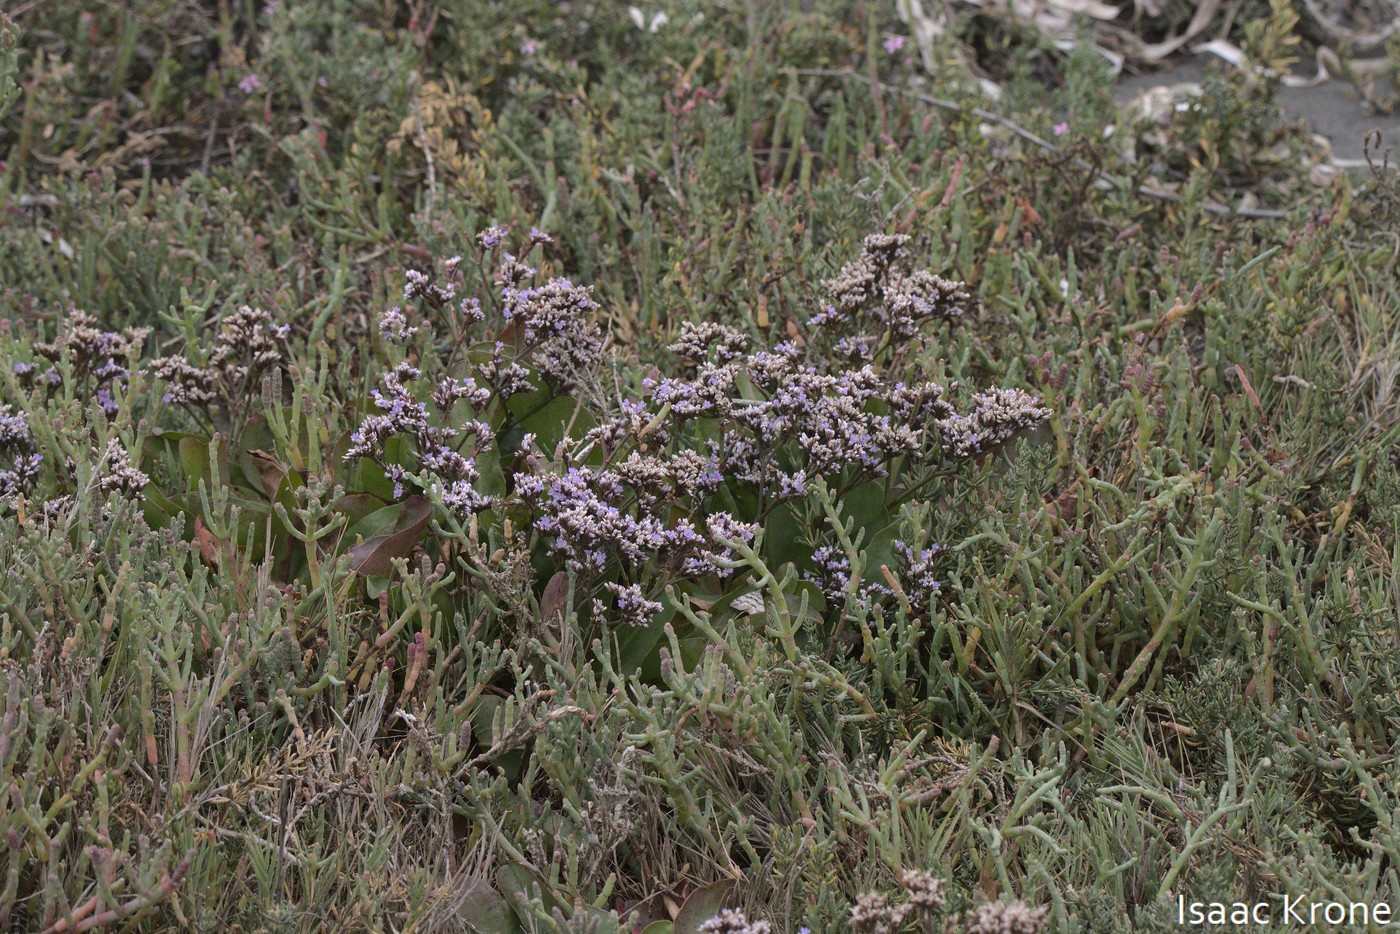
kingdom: Plantae
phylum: Tracheophyta
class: Magnoliopsida
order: Caryophyllales
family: Plumbaginaceae
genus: Limonium
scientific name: Limonium californicum
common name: Marsh-rosemary
